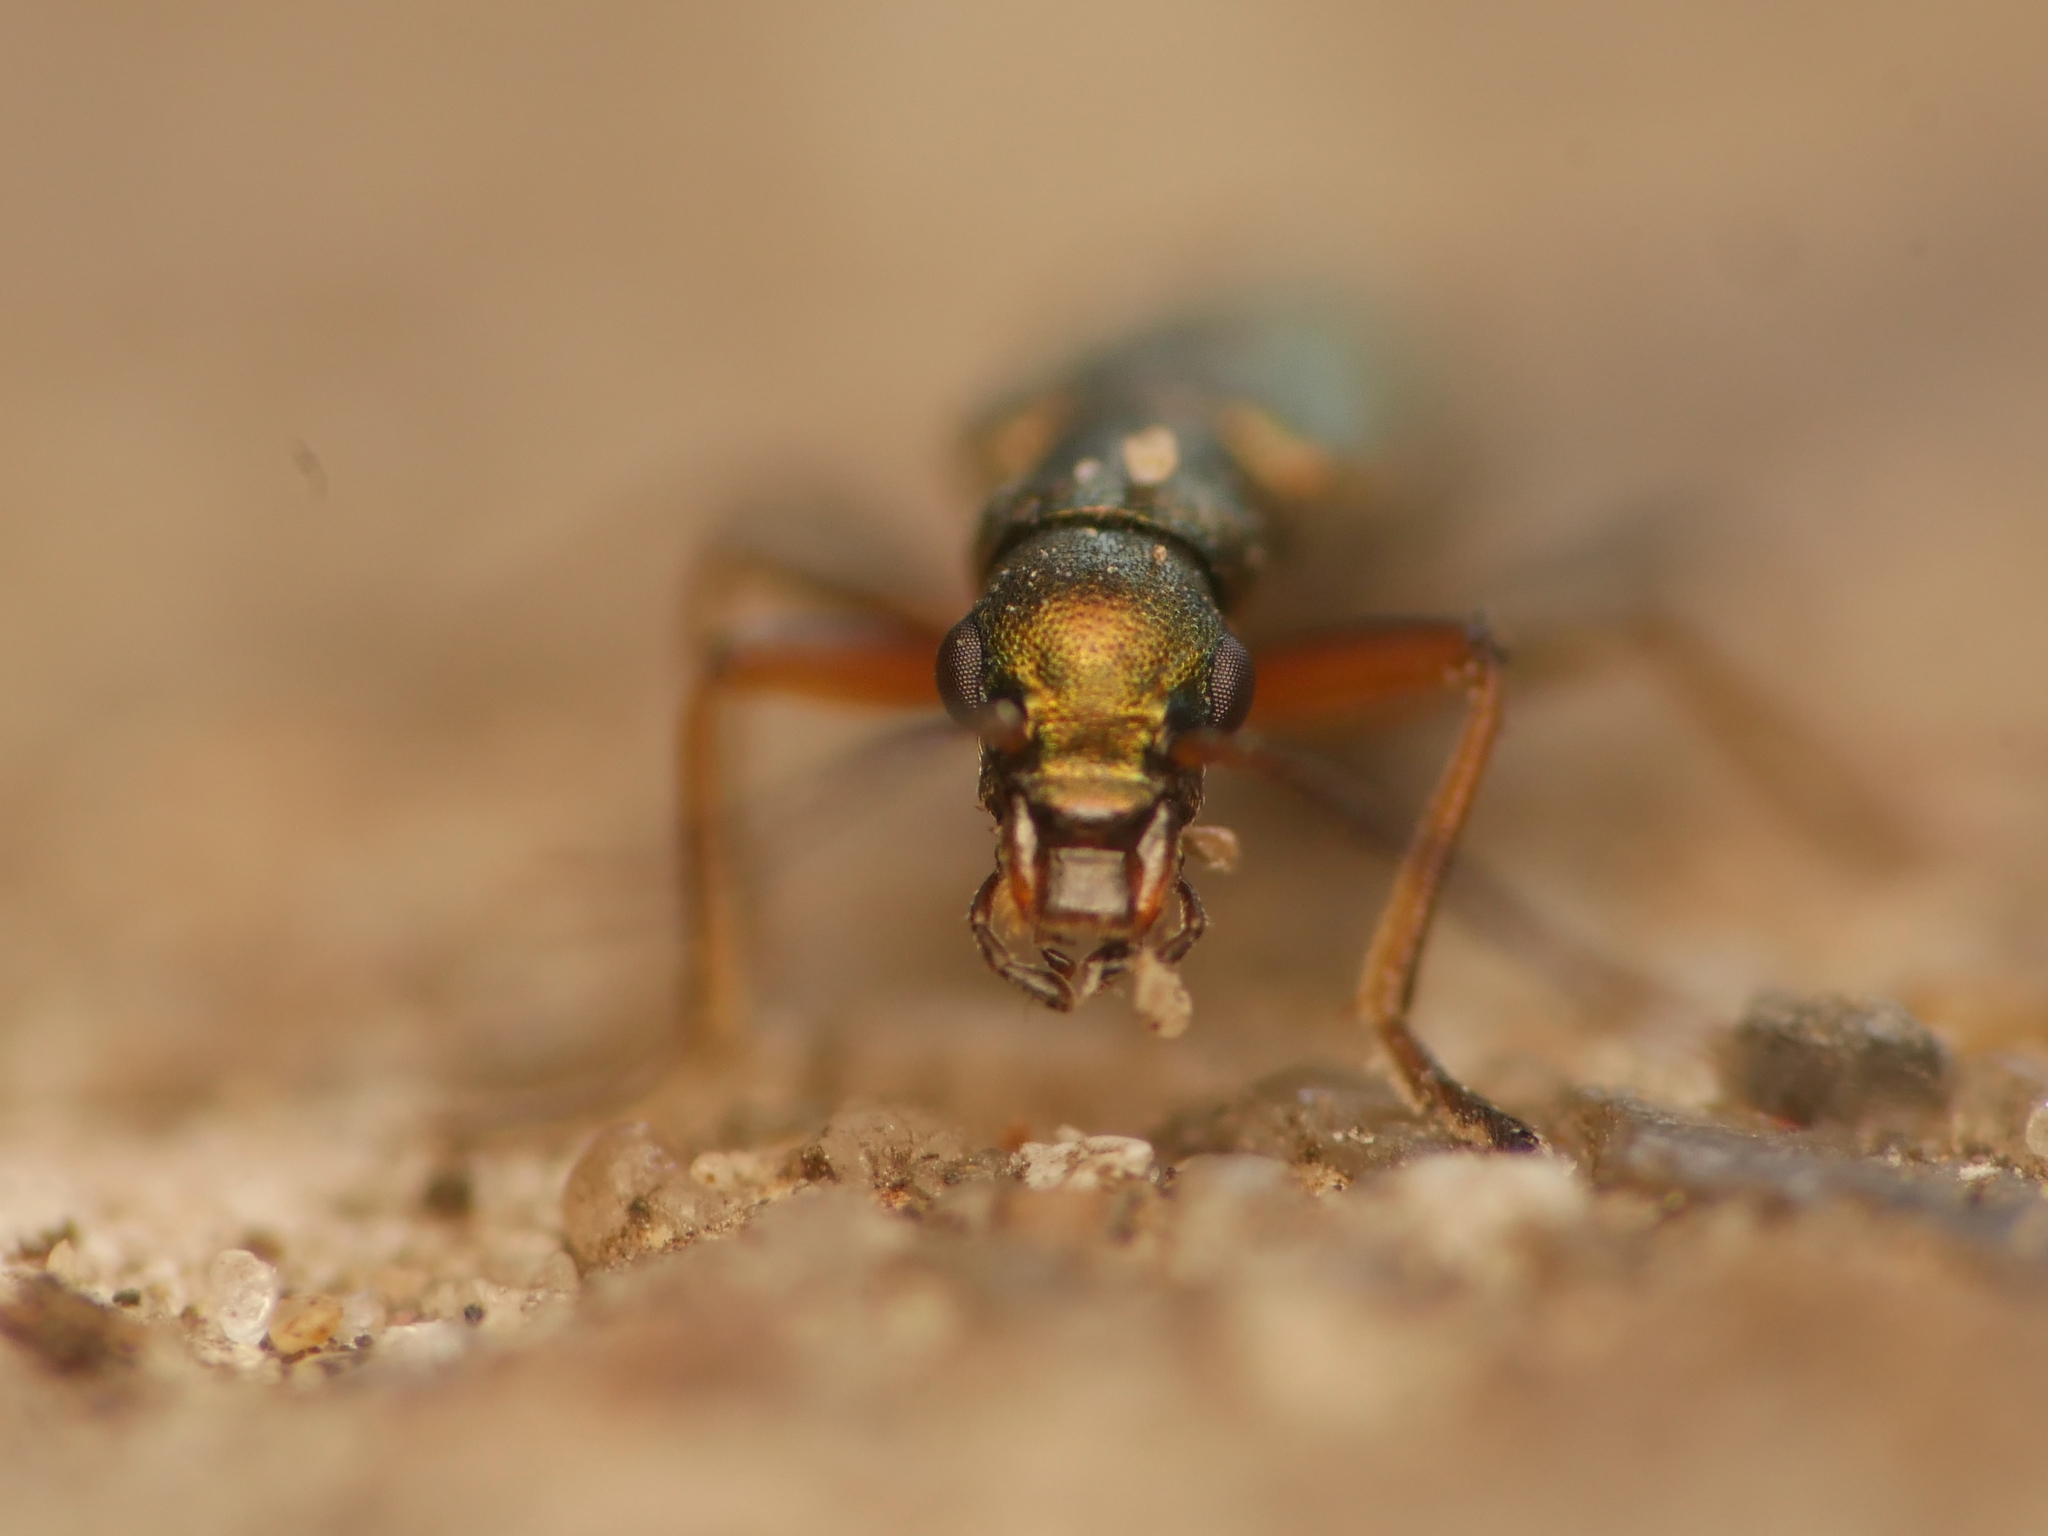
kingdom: Animalia
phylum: Arthropoda
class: Insecta
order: Coleoptera
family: Oedemeridae
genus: Chrysanthia
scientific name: Chrysanthia geniculata
